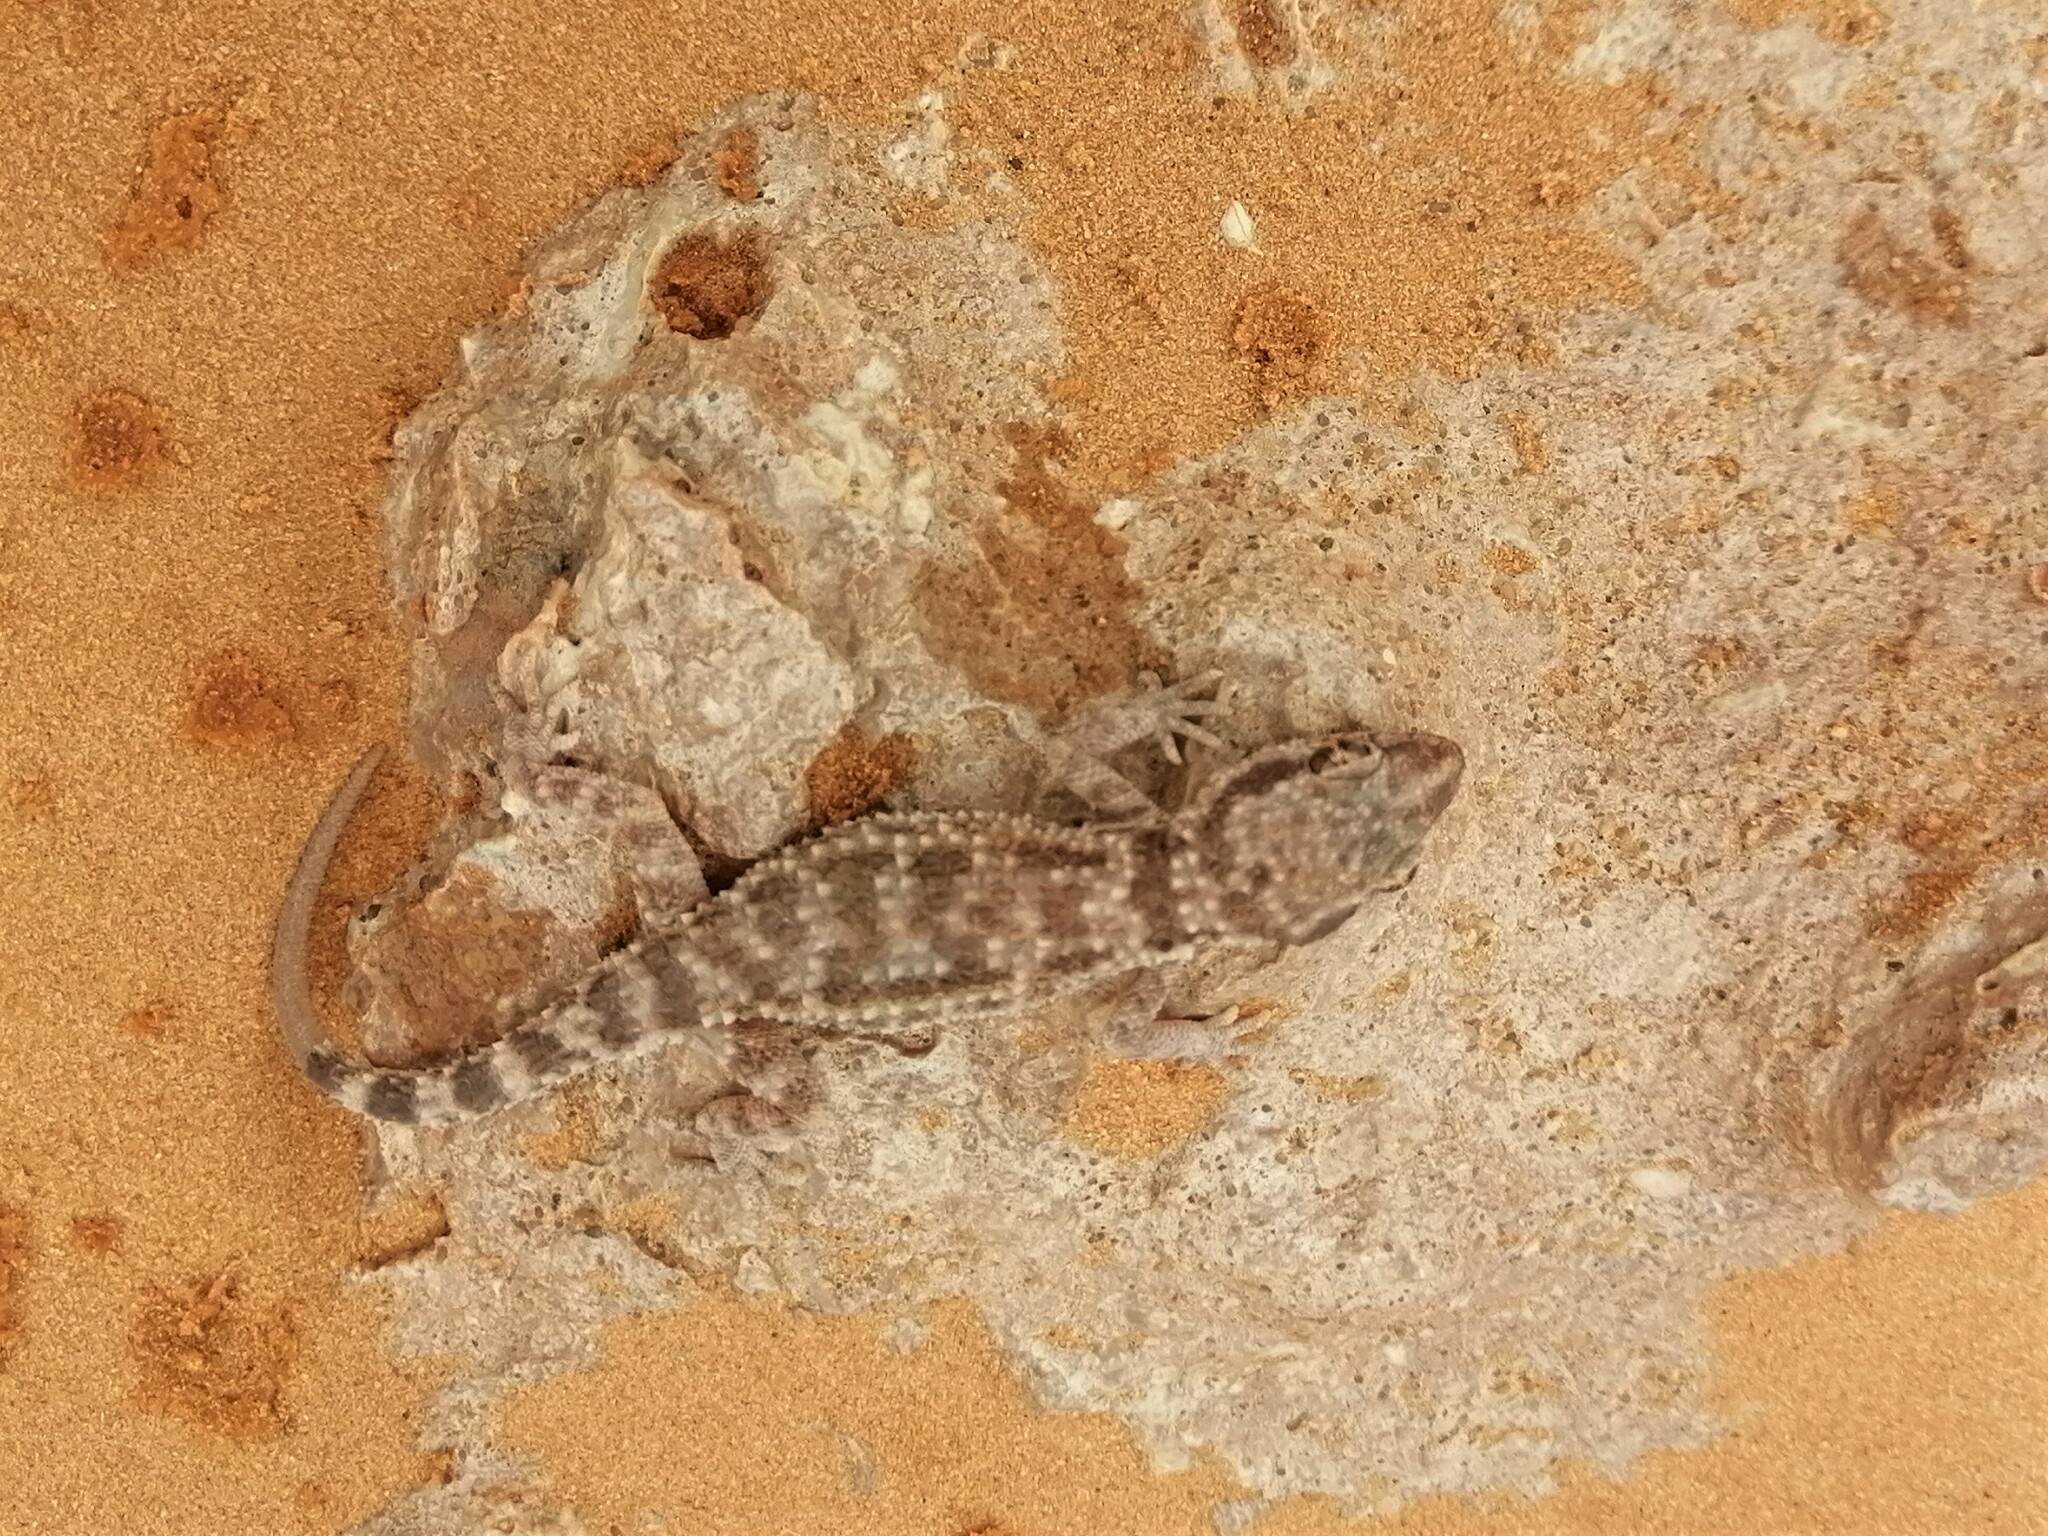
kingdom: Animalia
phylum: Chordata
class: Squamata
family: Gekkonidae
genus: Bunopus
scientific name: Bunopus tuberculatus
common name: Southern tuberculated gecko
